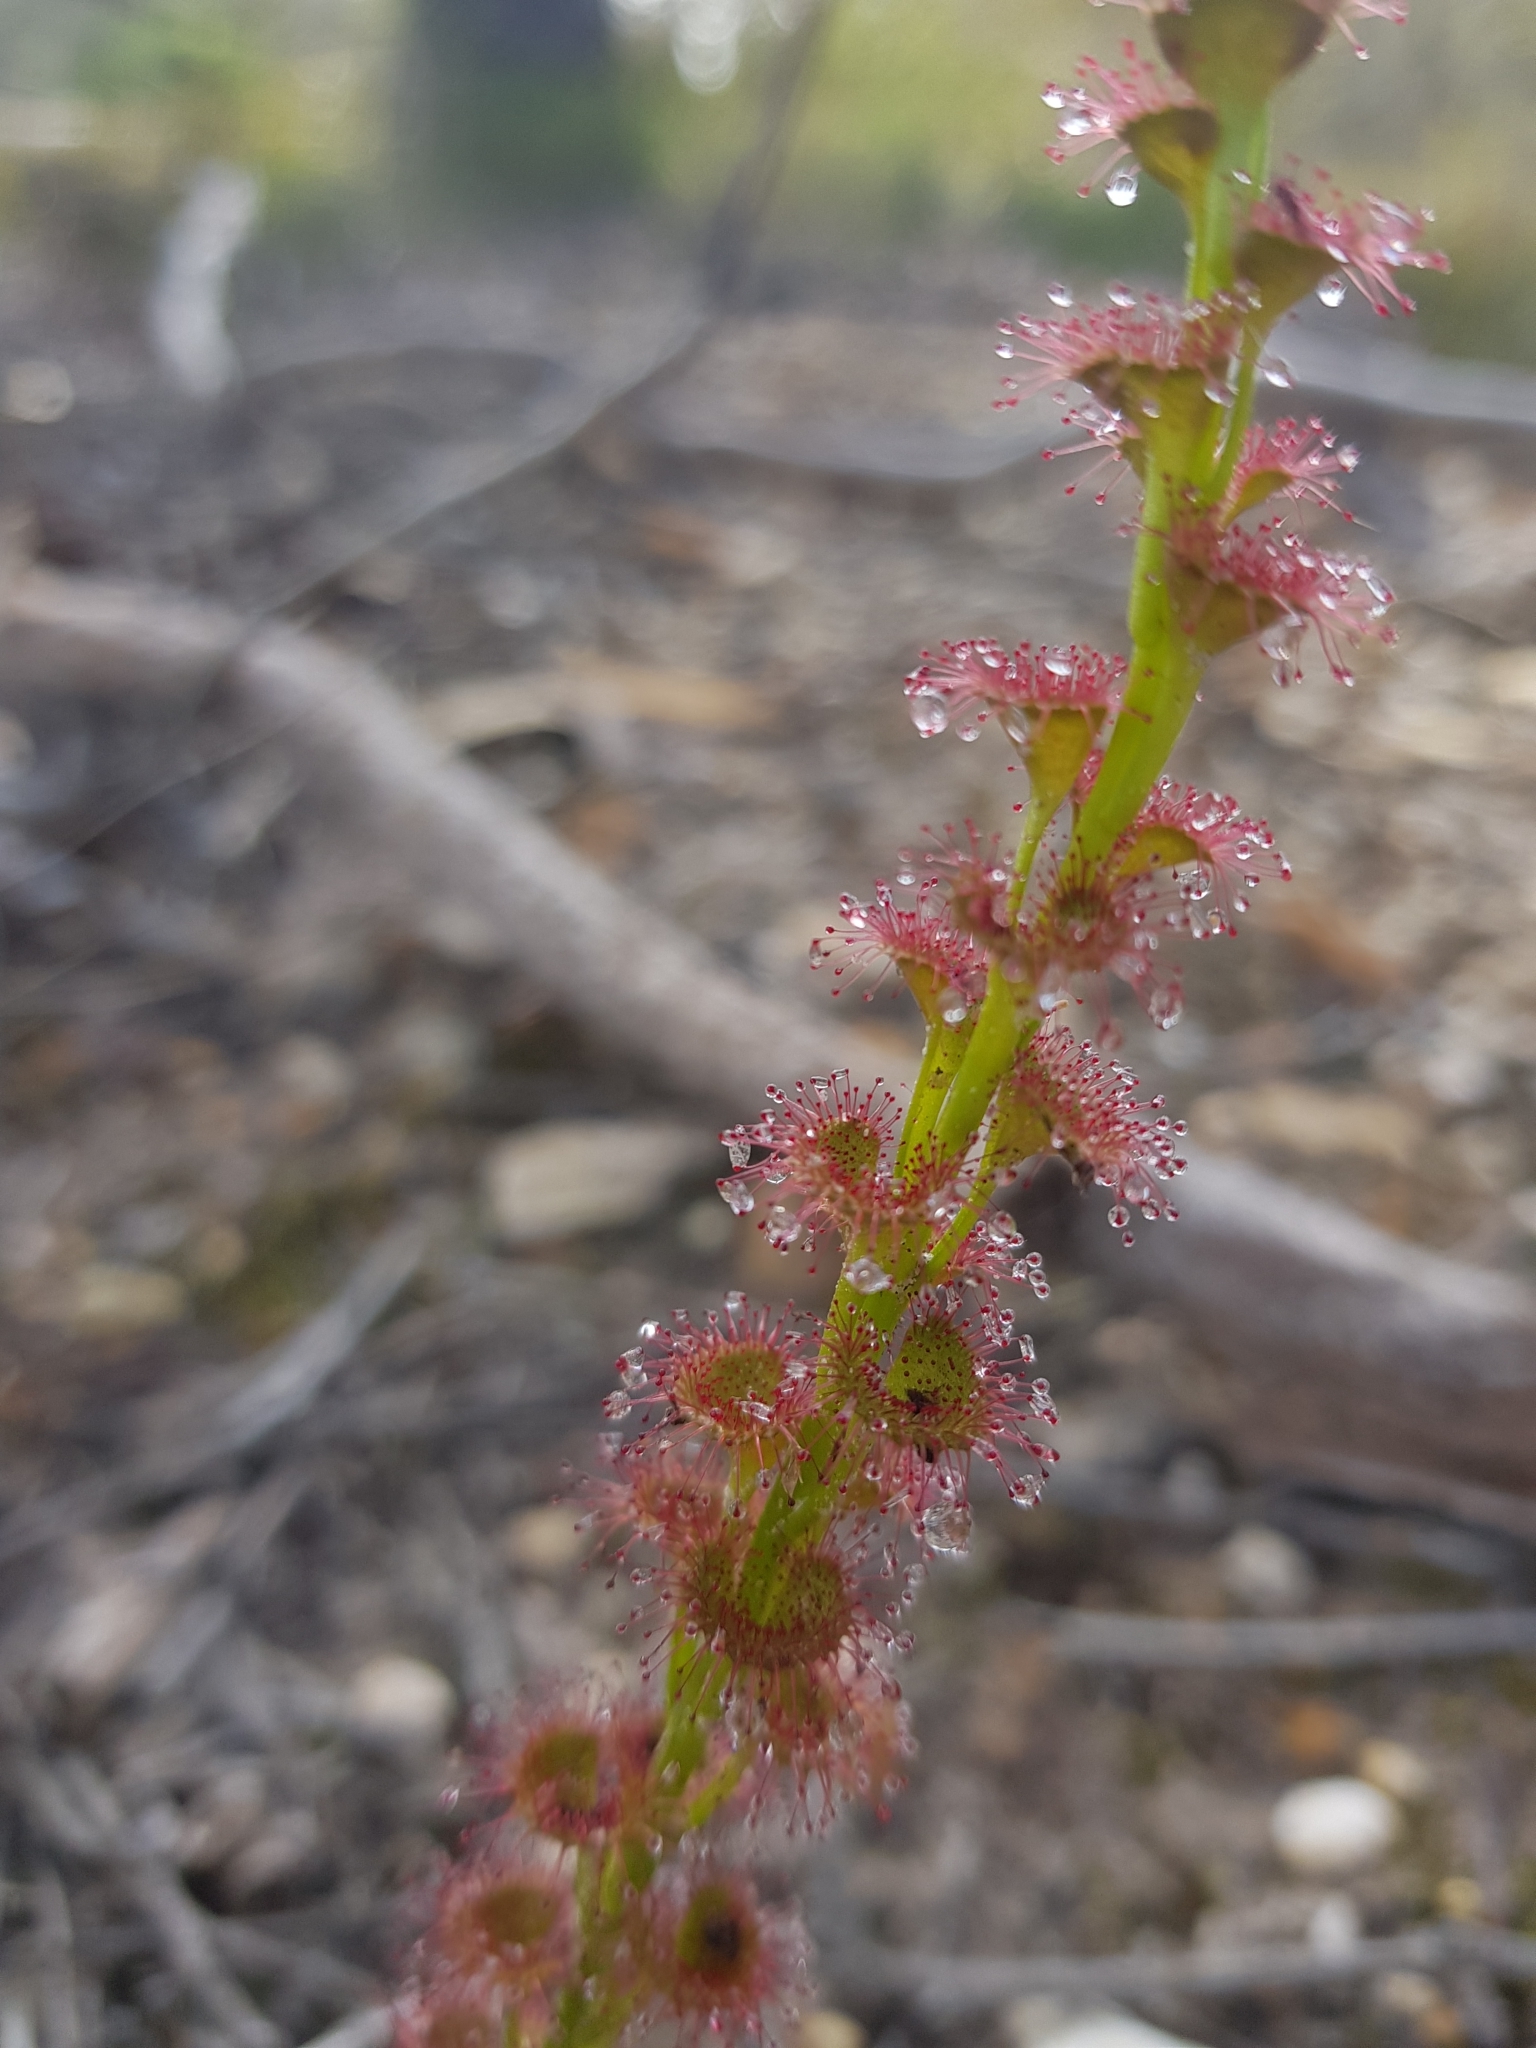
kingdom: Plantae
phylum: Tracheophyta
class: Magnoliopsida
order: Caryophyllales
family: Droseraceae
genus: Drosera
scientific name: Drosera platypoda
